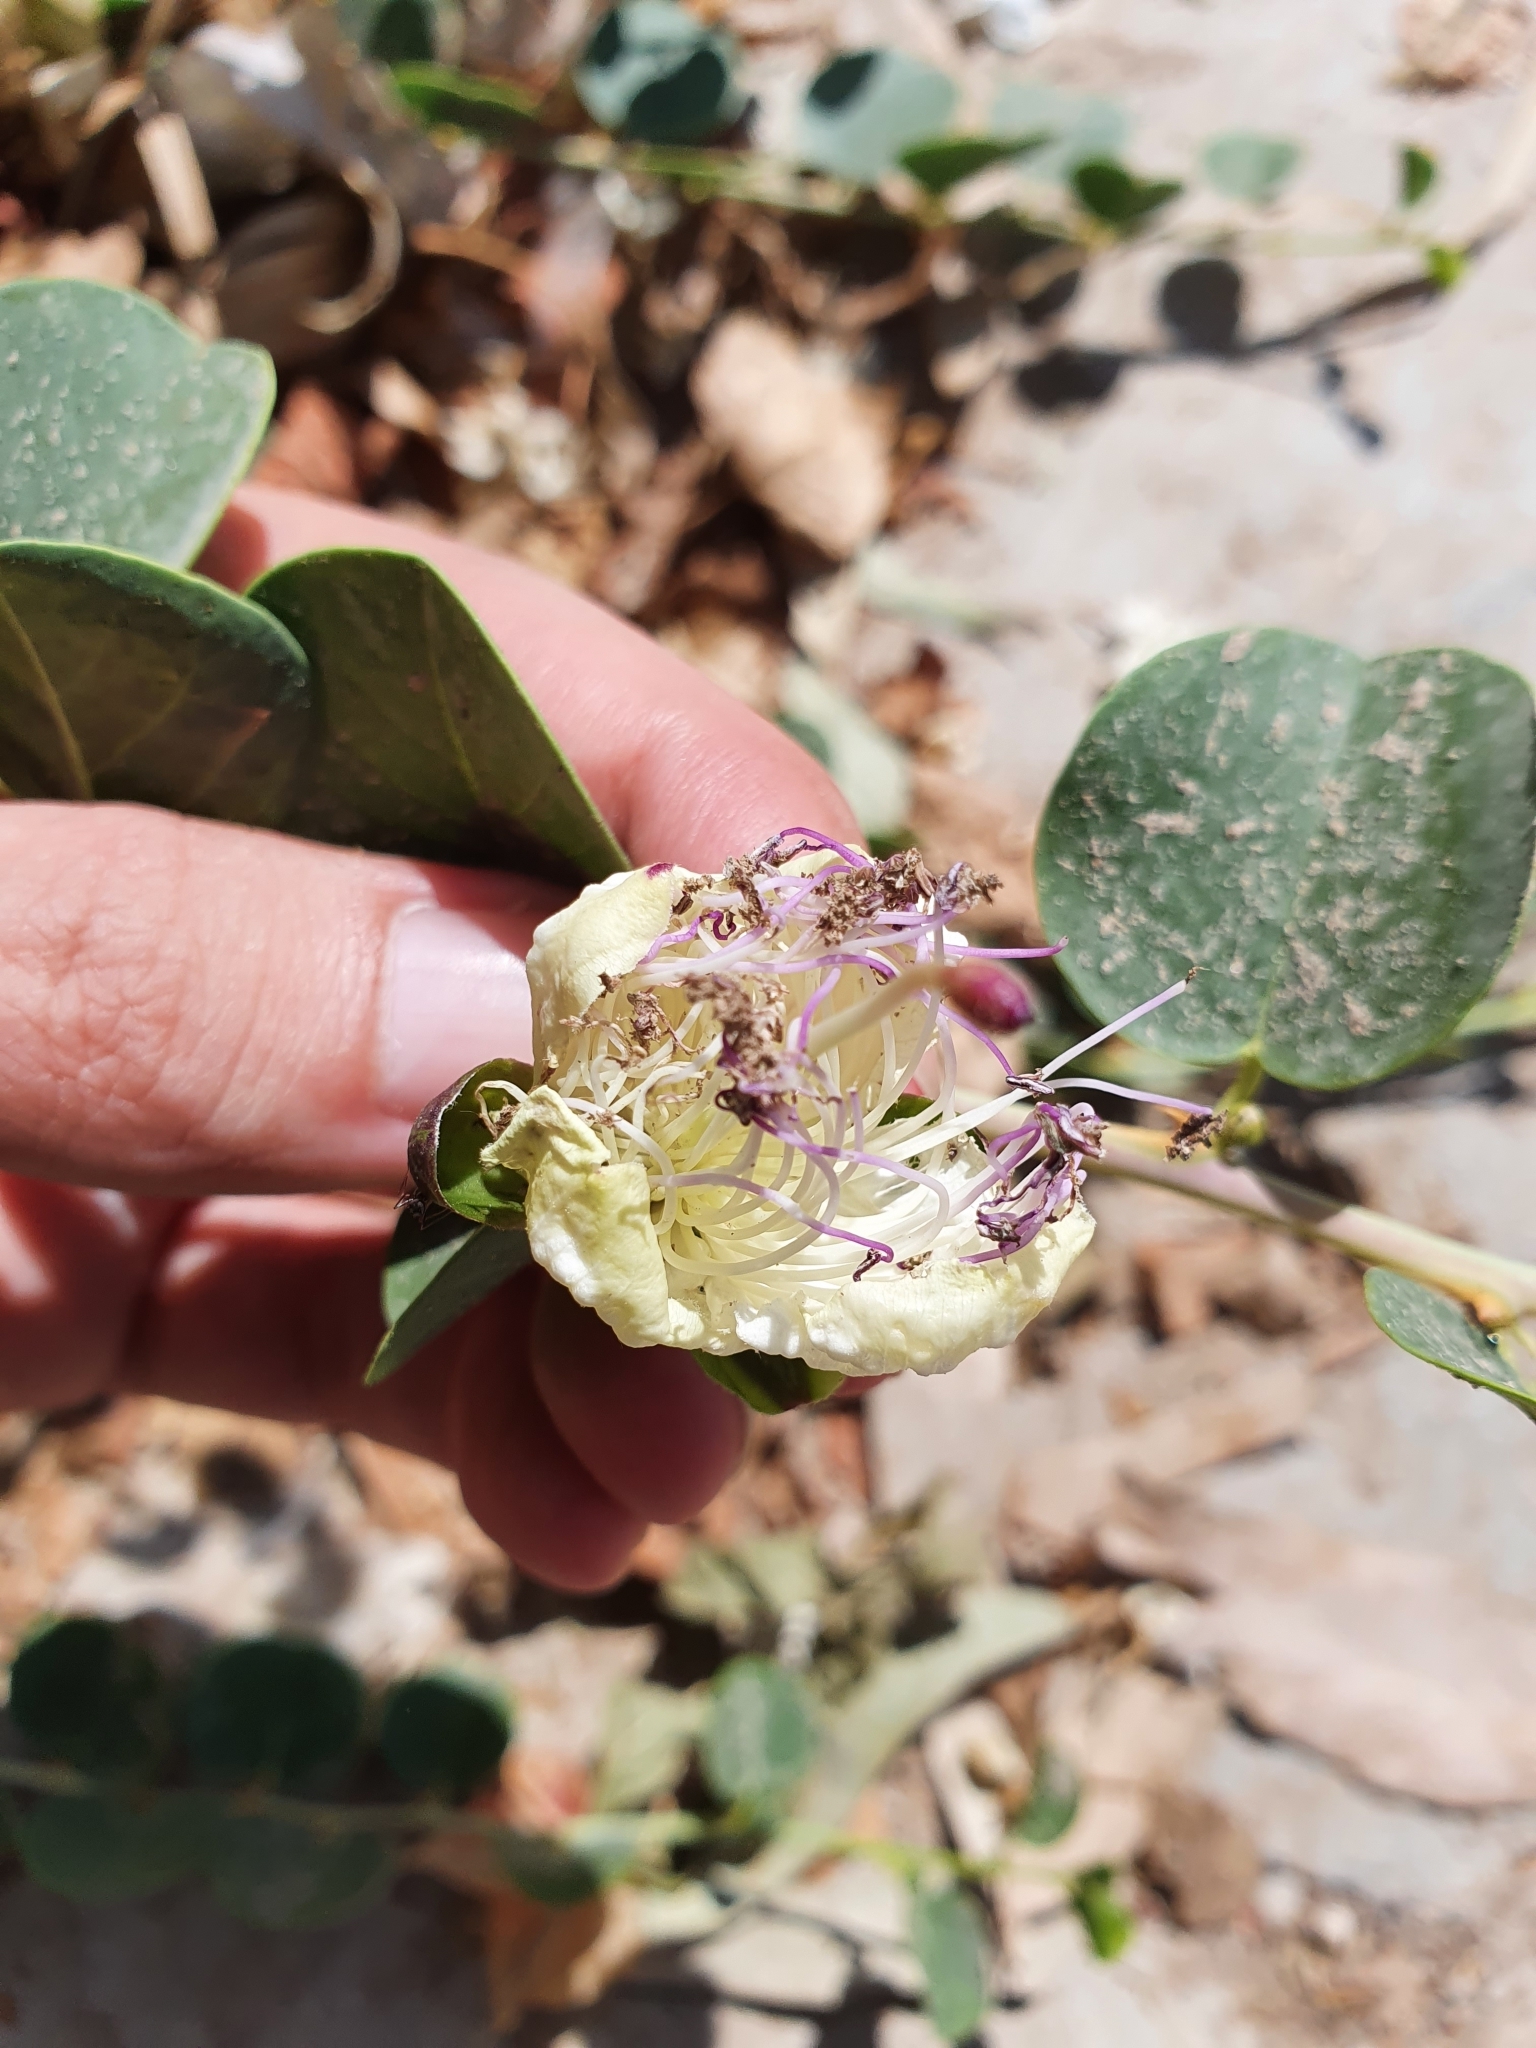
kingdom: Plantae
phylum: Tracheophyta
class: Magnoliopsida
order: Brassicales
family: Capparaceae
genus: Capparis
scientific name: Capparis spinosa
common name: Caper
